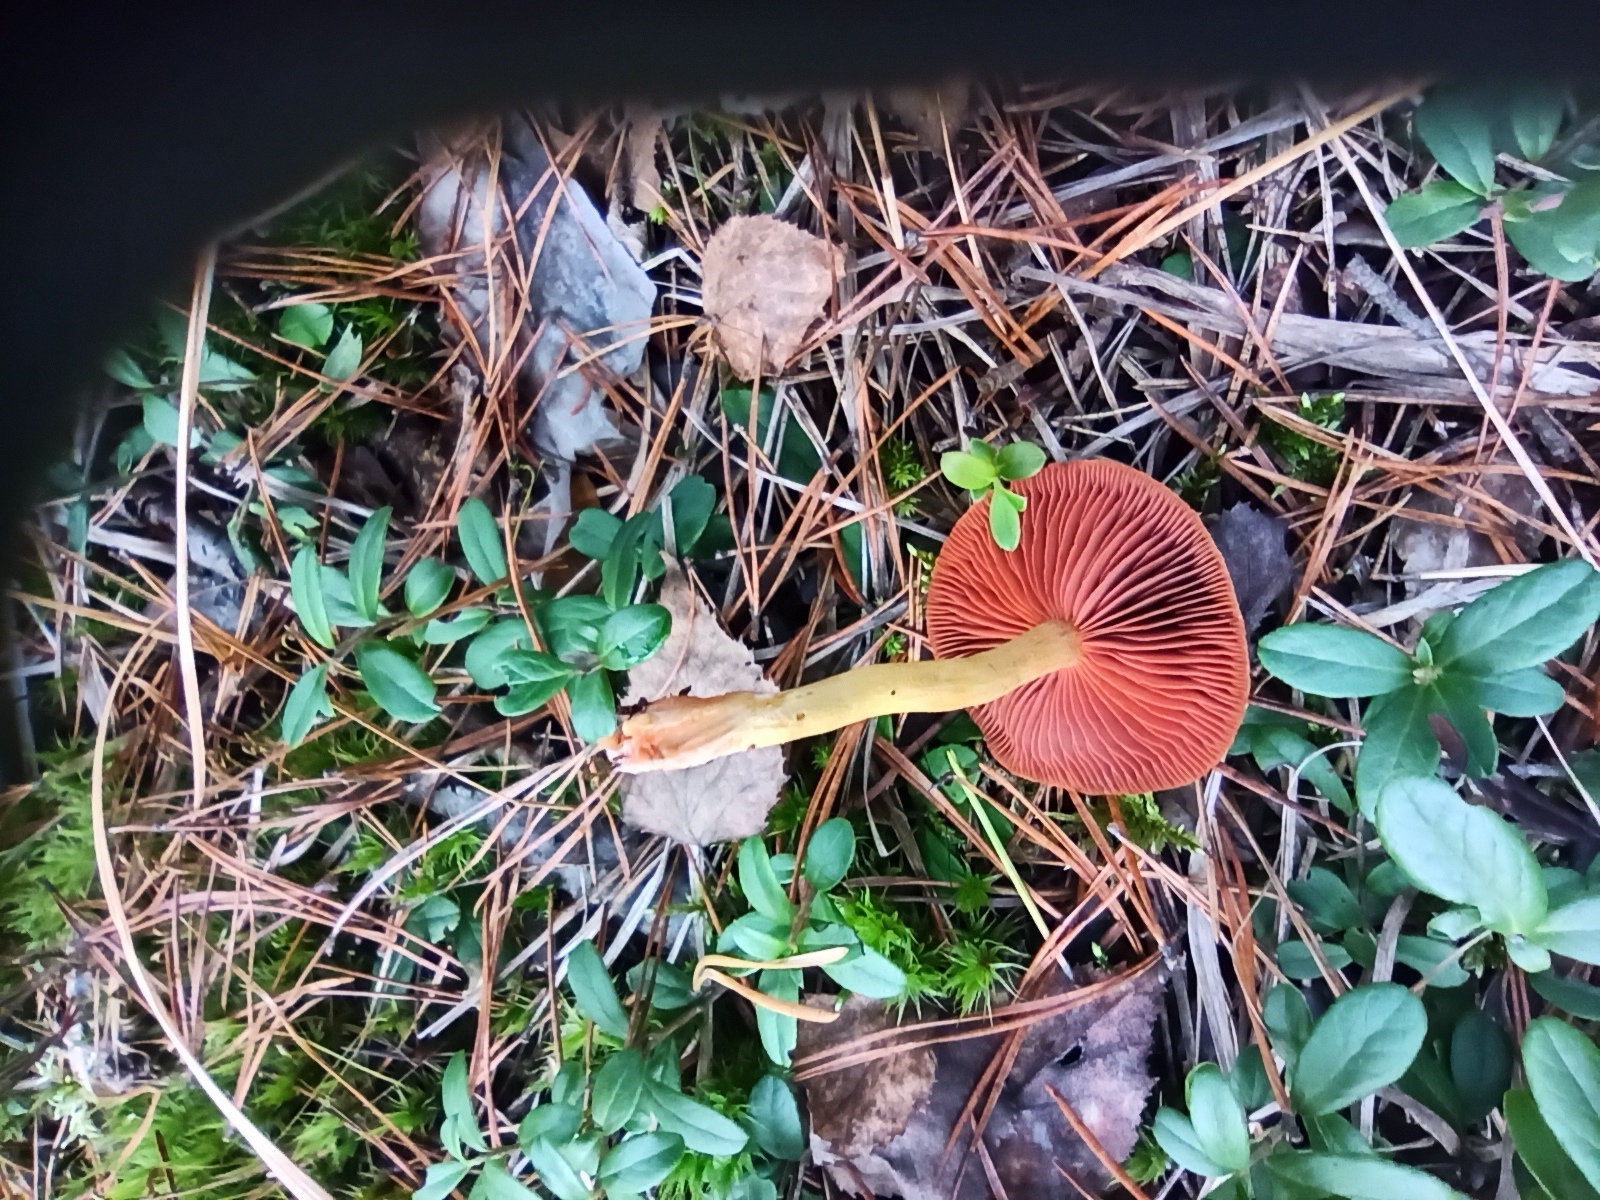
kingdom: Fungi
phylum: Basidiomycota
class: Agaricomycetes
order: Agaricales
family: Cortinariaceae
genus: Cortinarius
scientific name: Cortinarius semisanguineus
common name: Surprise webcap
